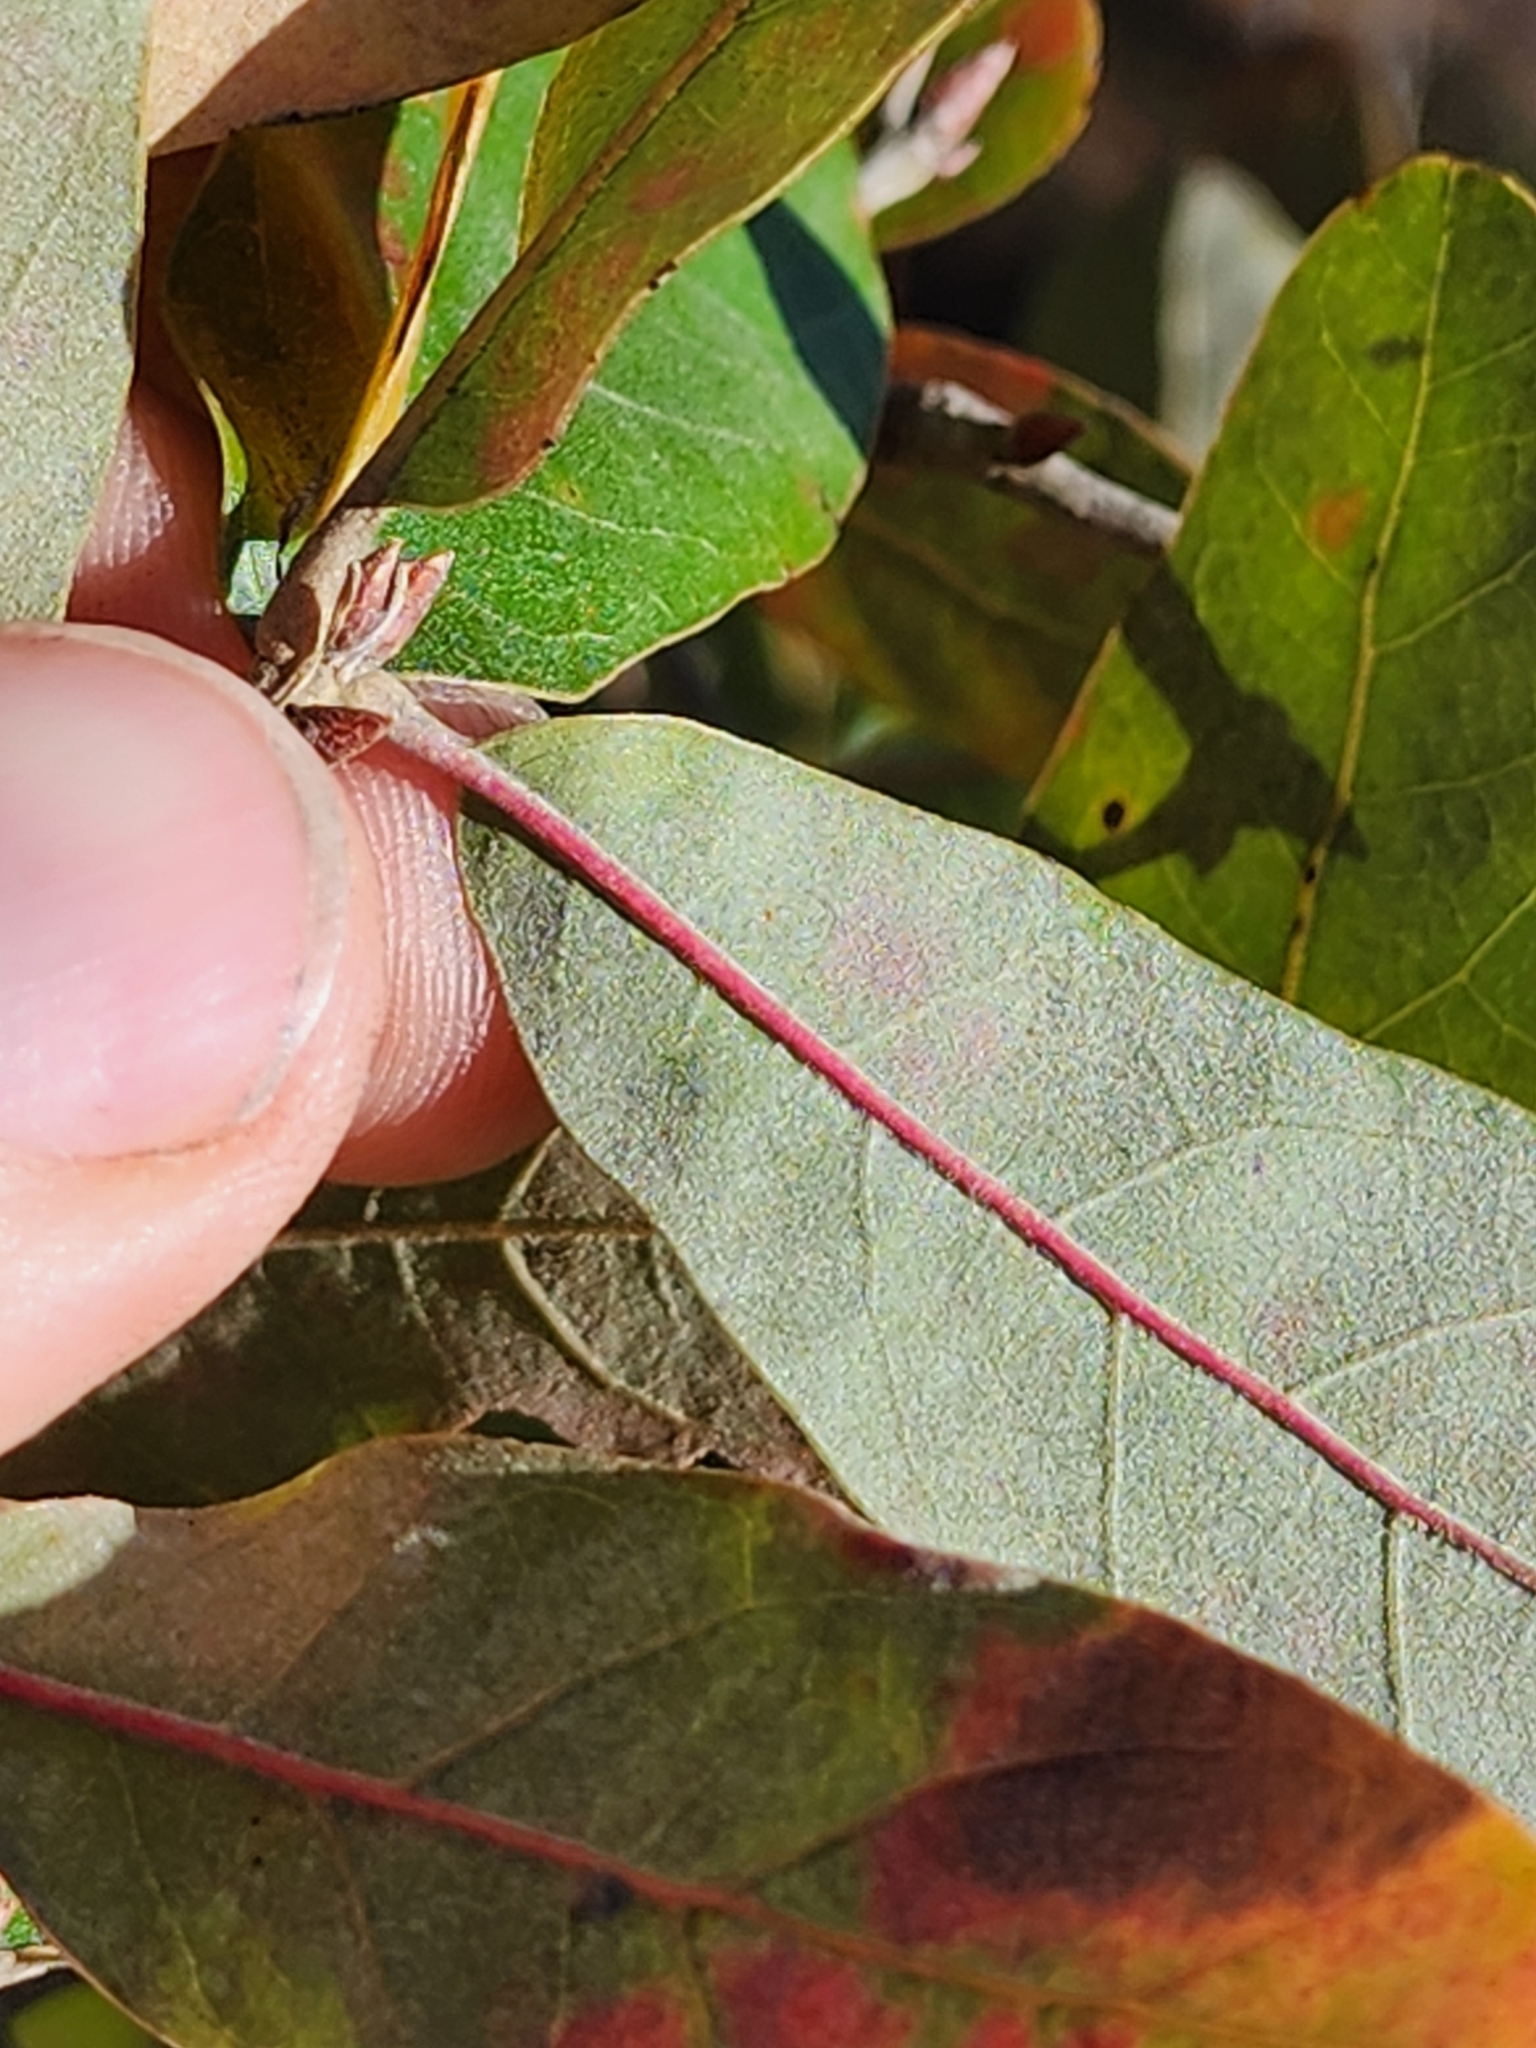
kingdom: Plantae
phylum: Tracheophyta
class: Magnoliopsida
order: Fagales
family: Fagaceae
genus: Quercus
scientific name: Quercus incana
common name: Bluejack oak
